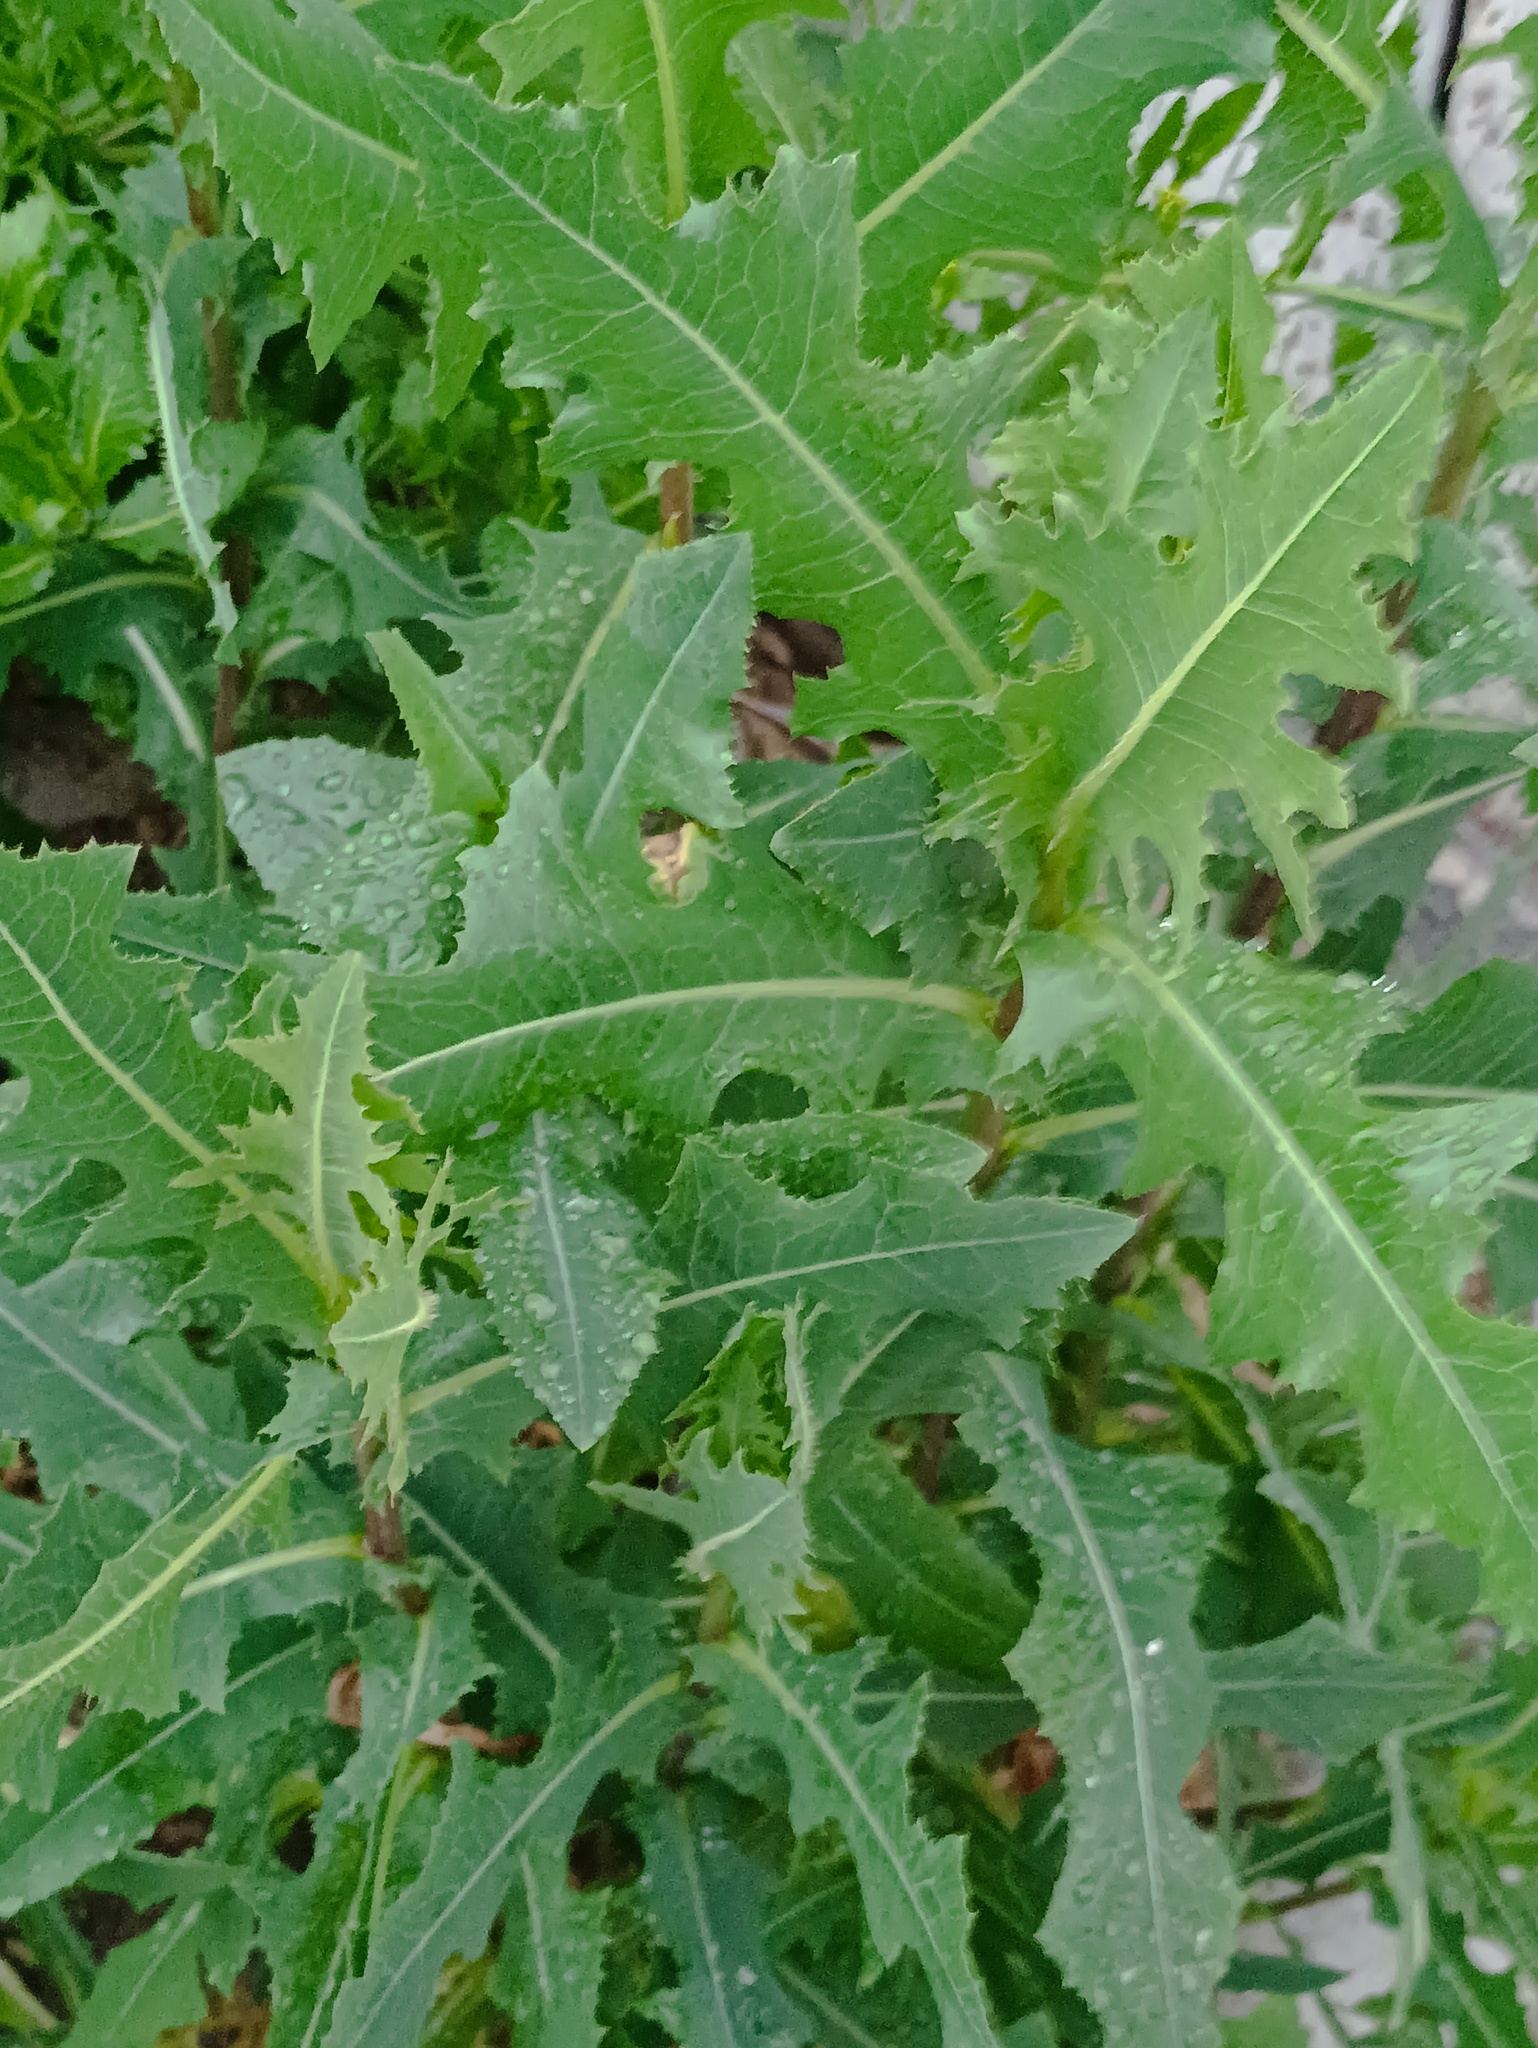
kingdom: Plantae
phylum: Tracheophyta
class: Magnoliopsida
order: Asterales
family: Asteraceae
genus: Lactuca
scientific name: Lactuca serriola
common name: Prickly lettuce
